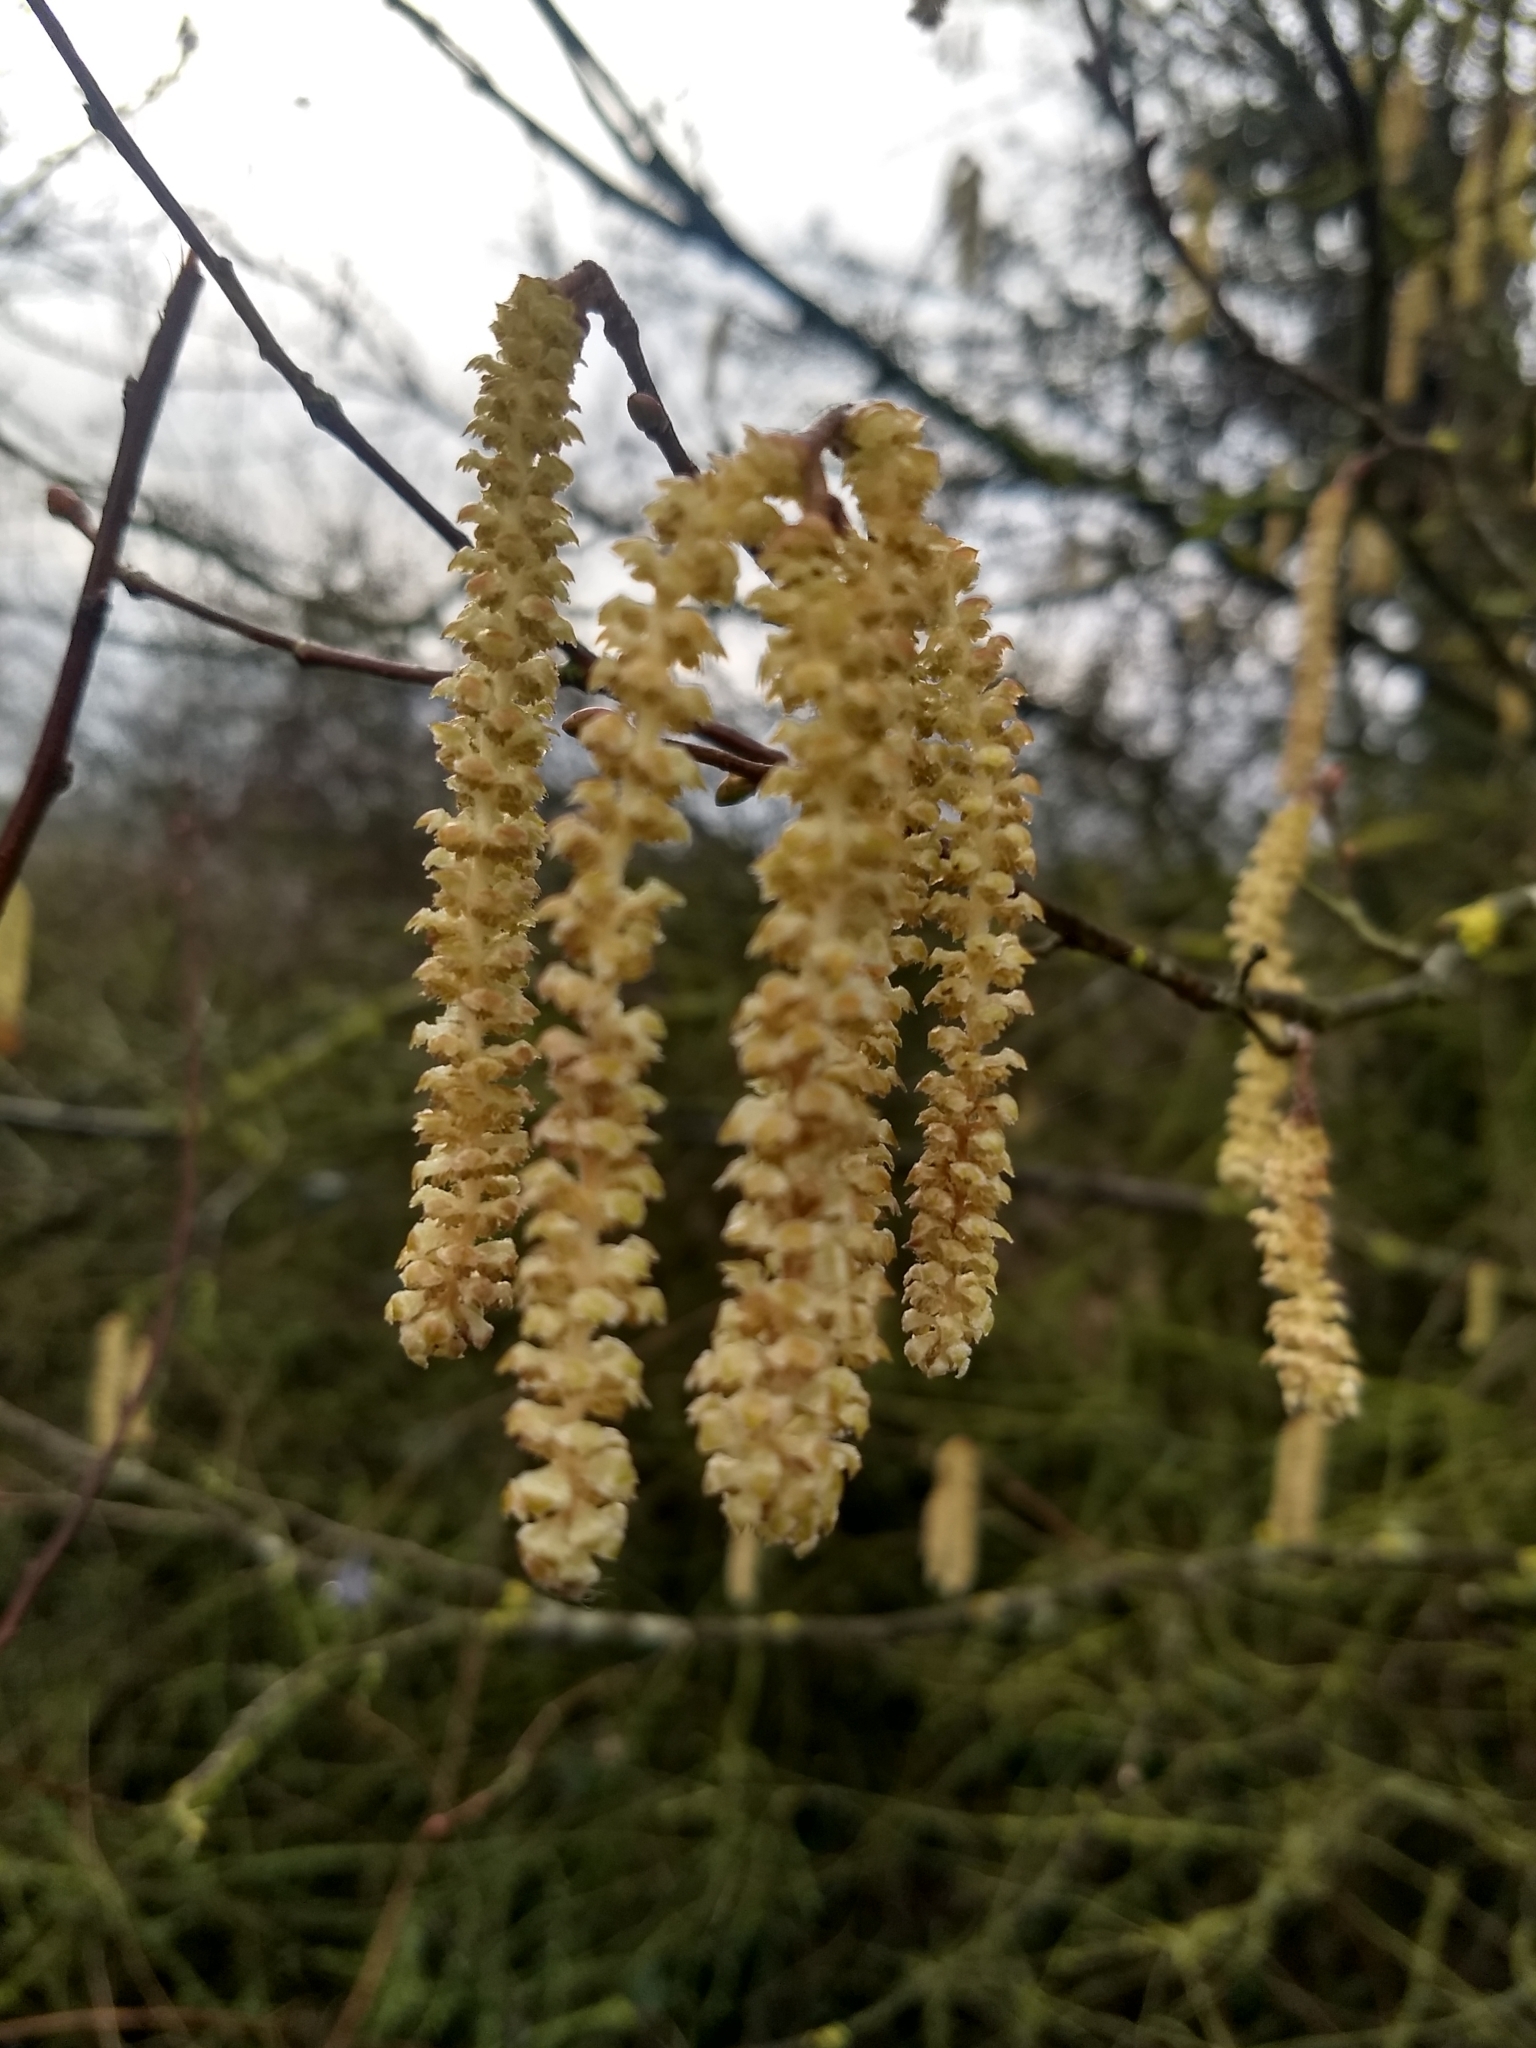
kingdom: Plantae
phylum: Tracheophyta
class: Magnoliopsida
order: Fagales
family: Betulaceae
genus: Corylus
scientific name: Corylus avellana
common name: European hazel
